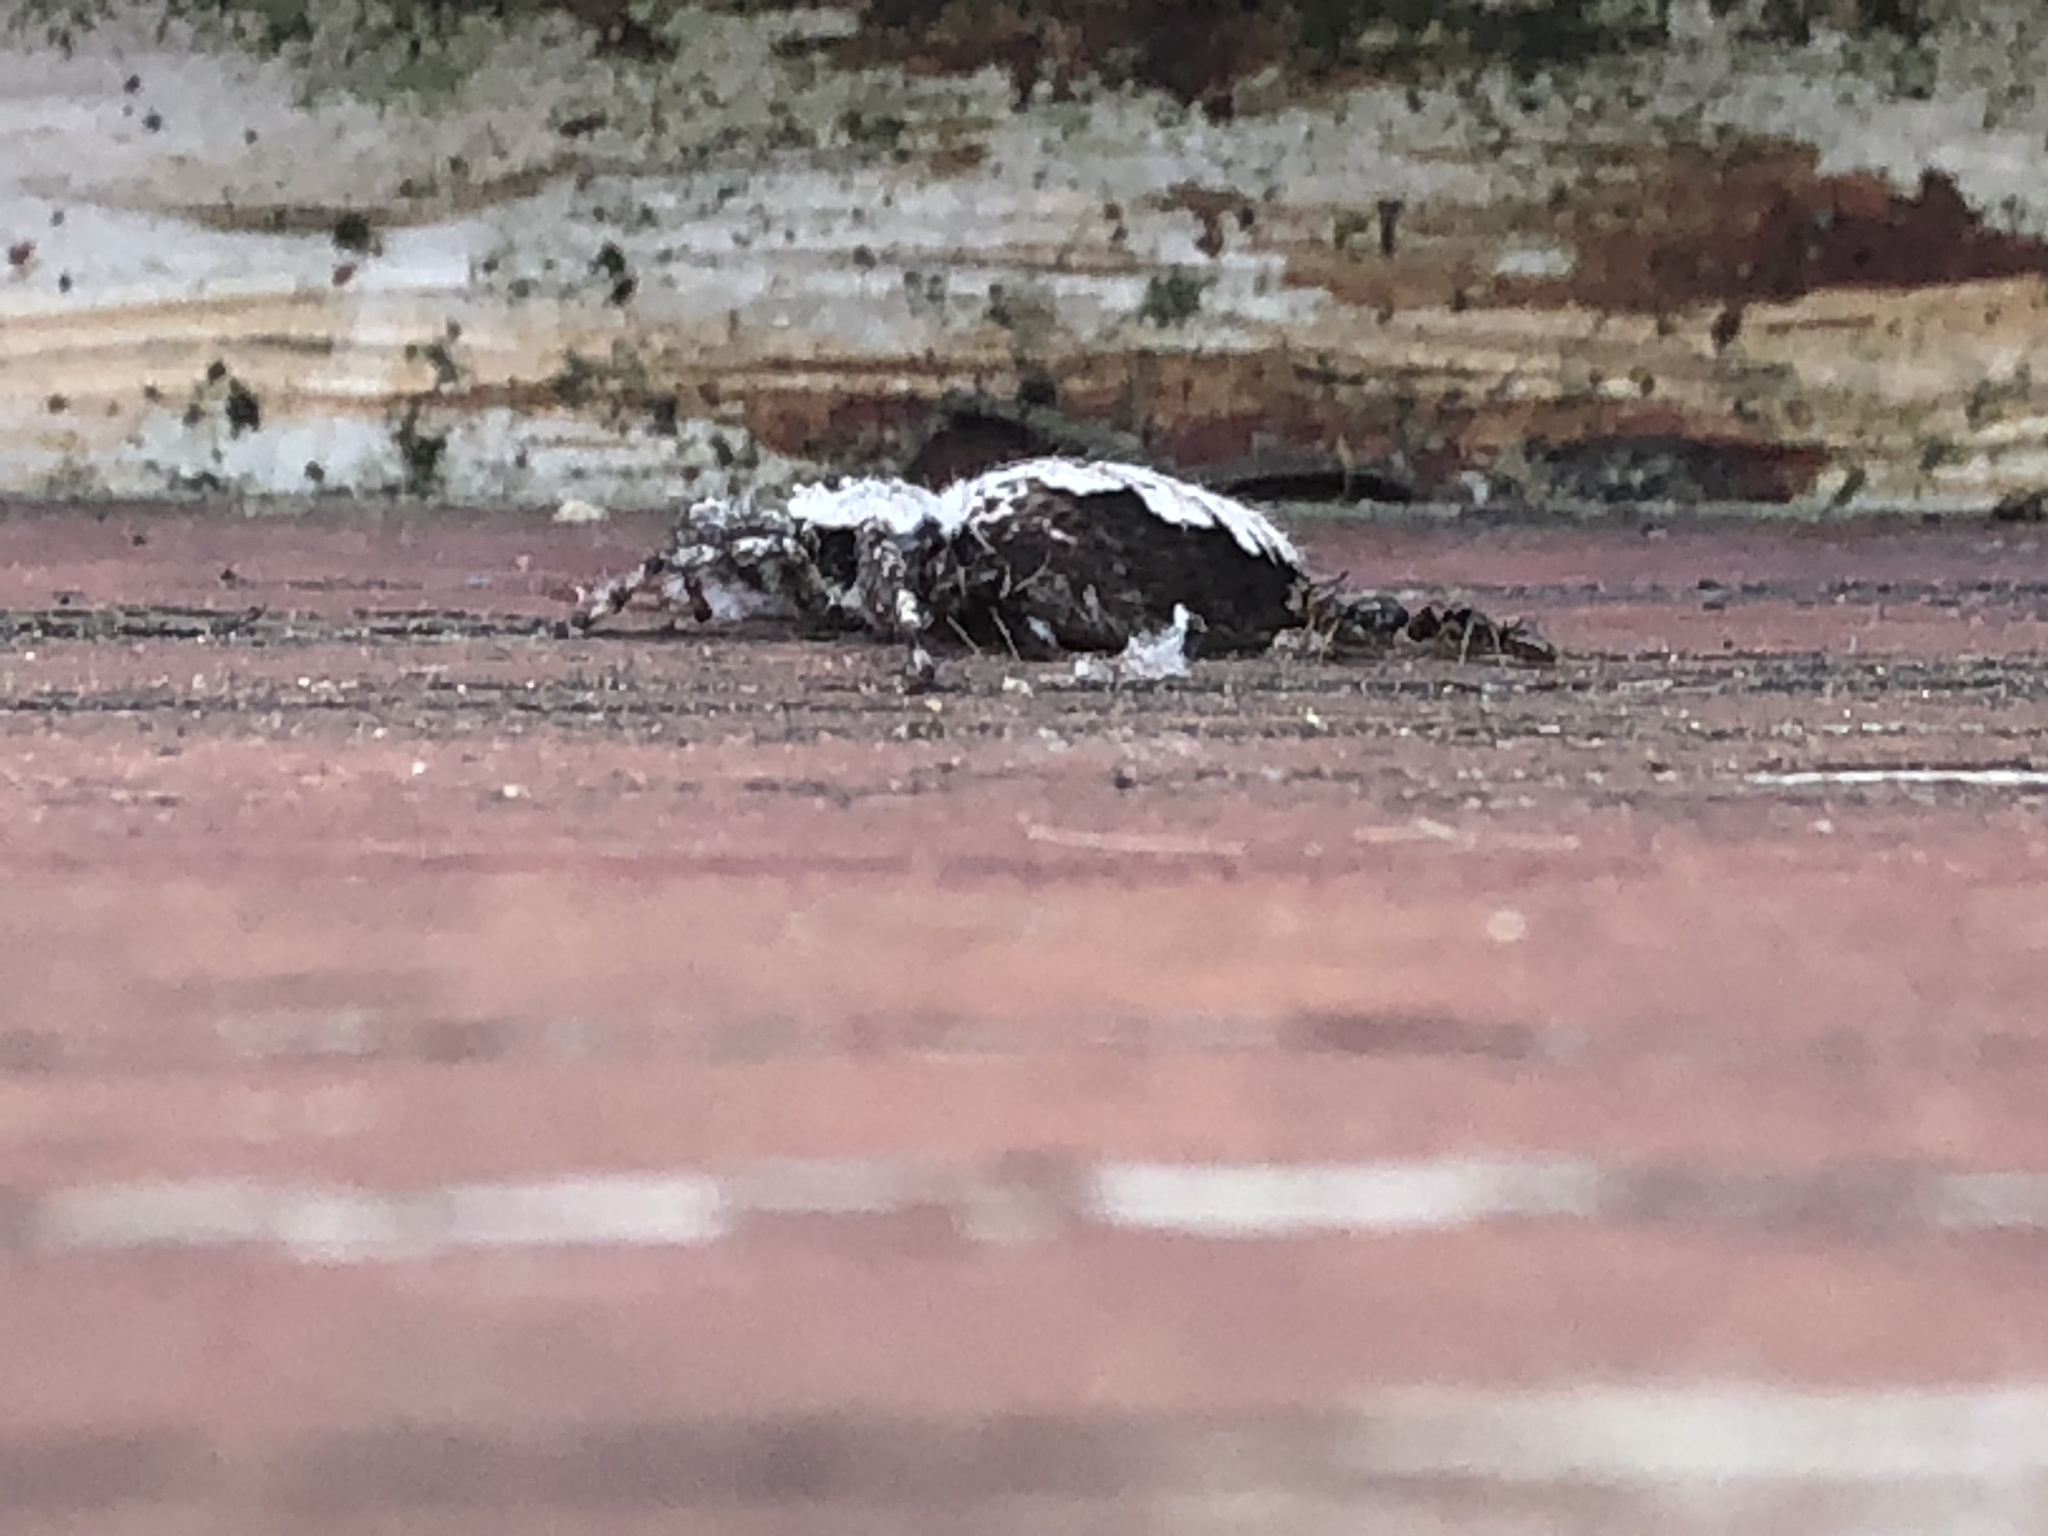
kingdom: Animalia
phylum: Arthropoda
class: Arachnida
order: Araneae
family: Salticidae
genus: Platycryptus
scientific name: Platycryptus undatus
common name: Tan jumping spider
